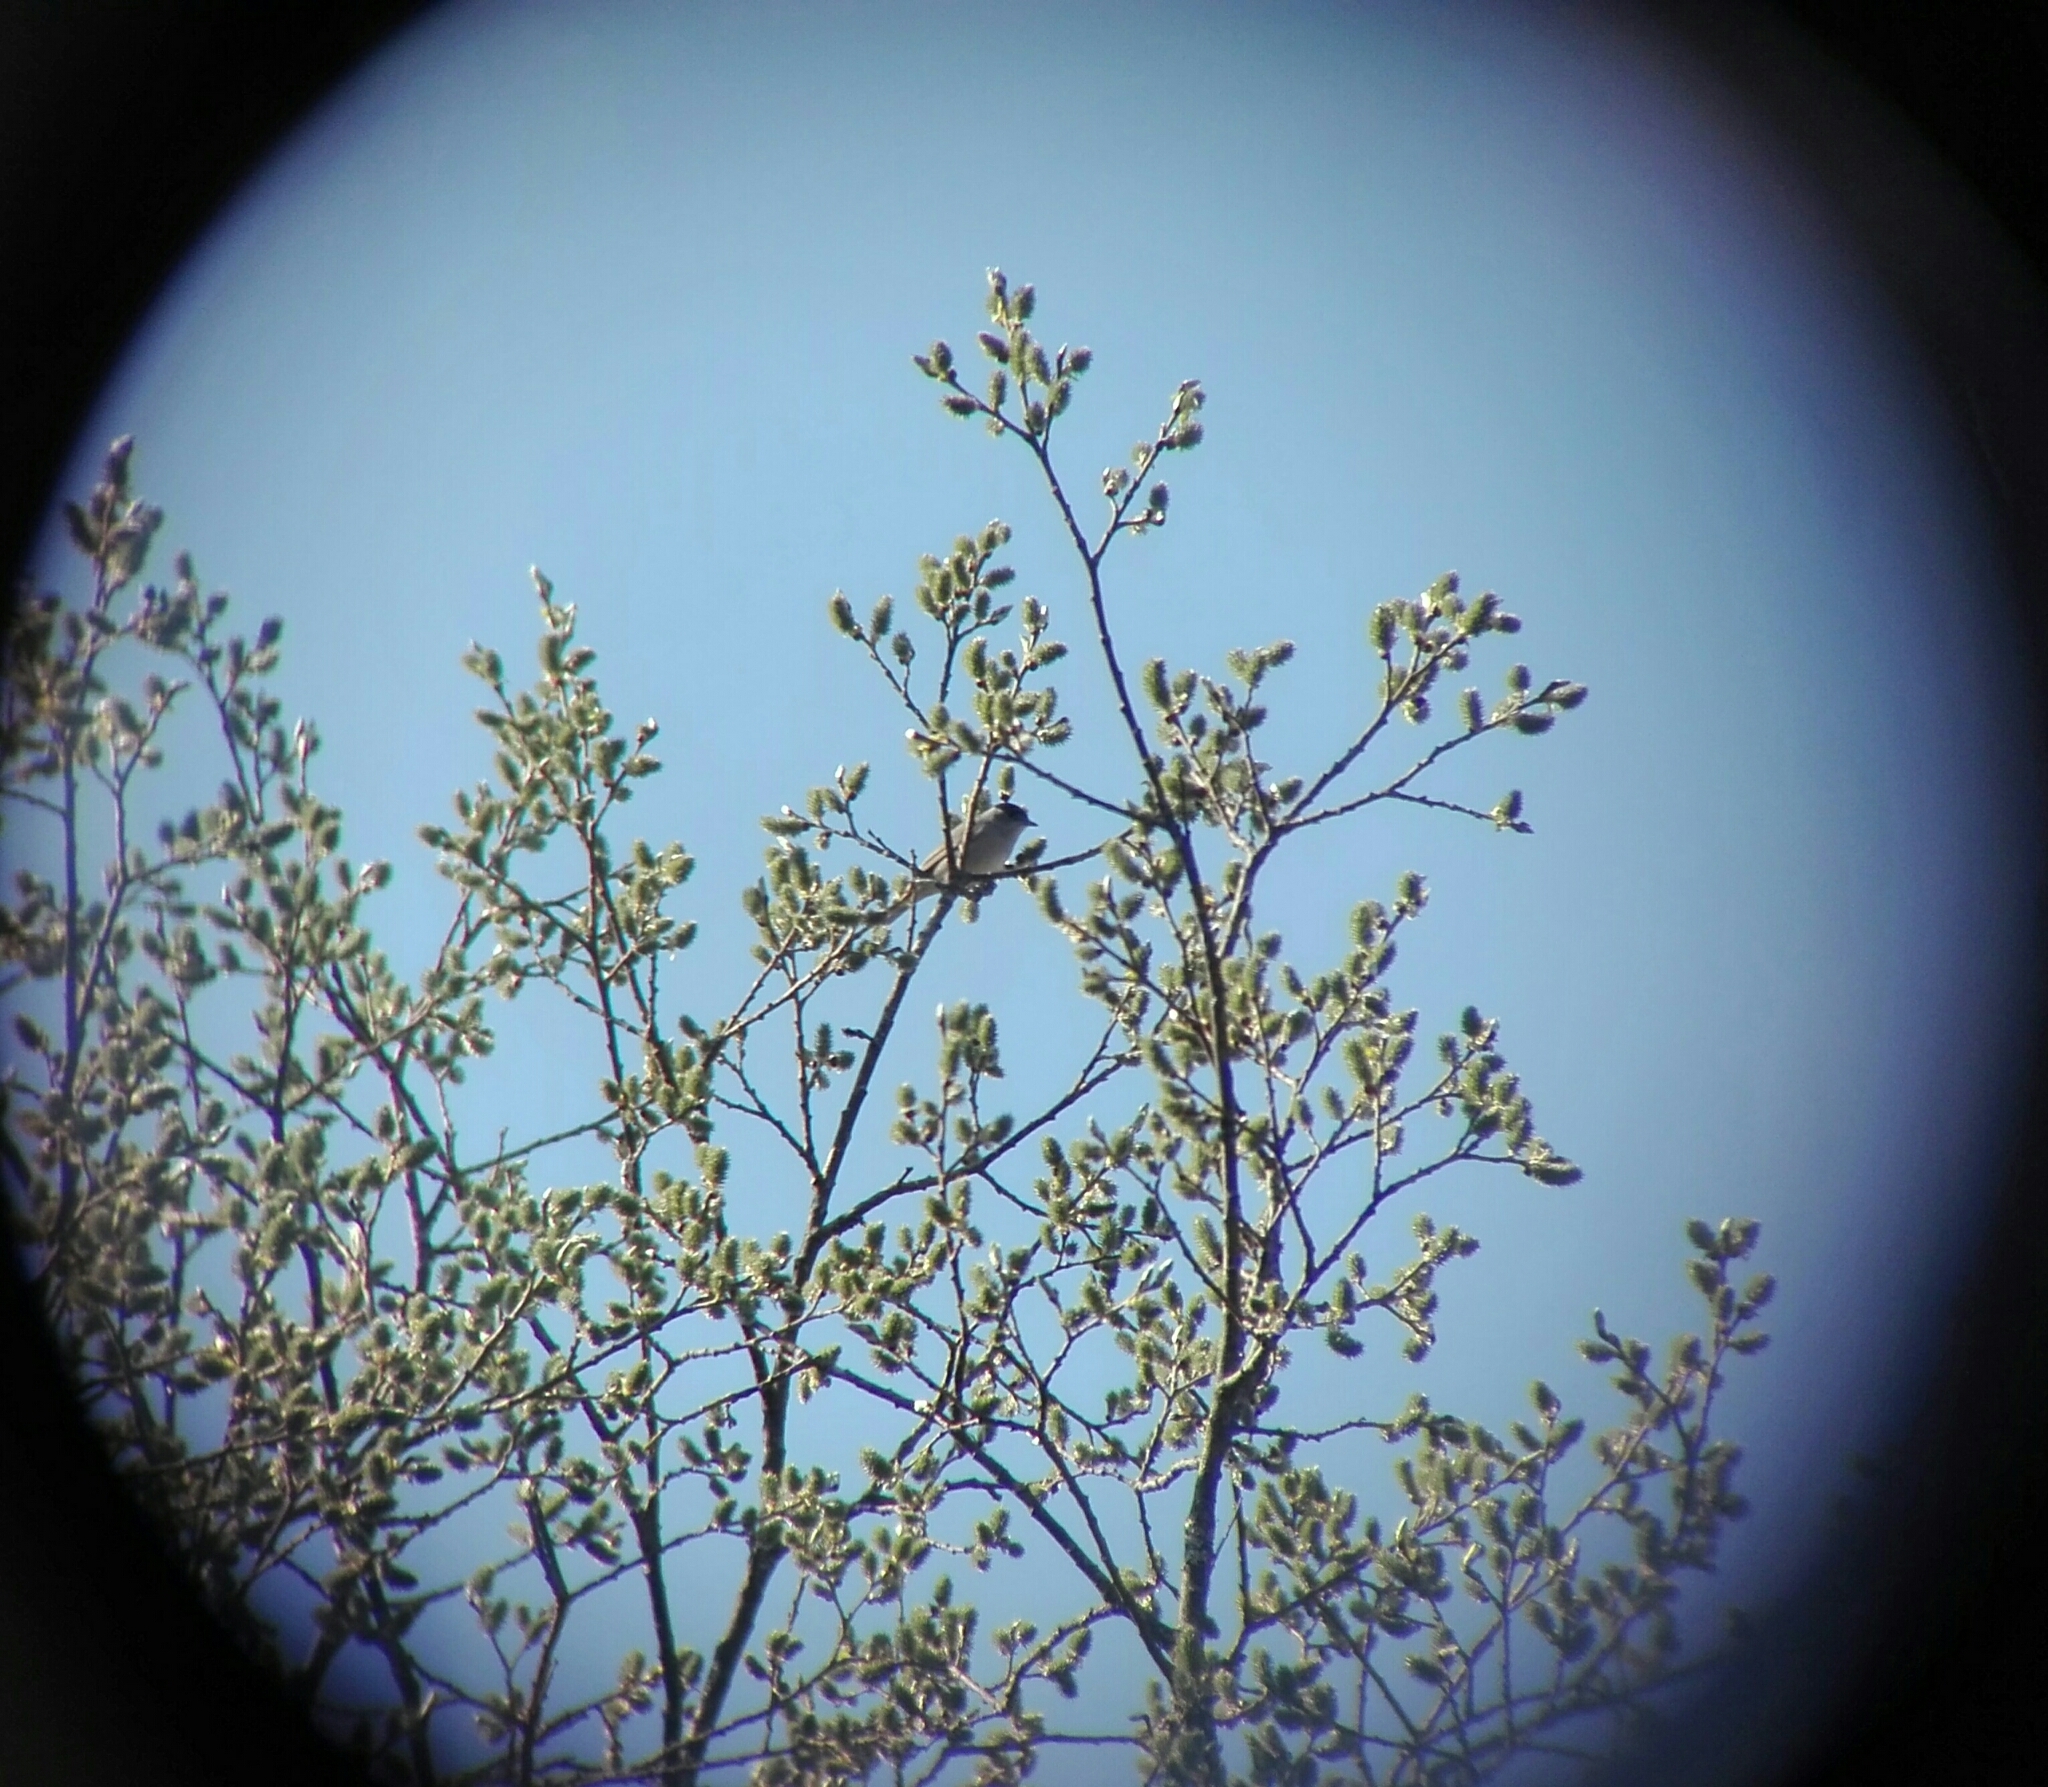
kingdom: Animalia
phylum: Chordata
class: Aves
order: Passeriformes
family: Sylviidae
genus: Sylvia
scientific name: Sylvia atricapilla
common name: Eurasian blackcap
